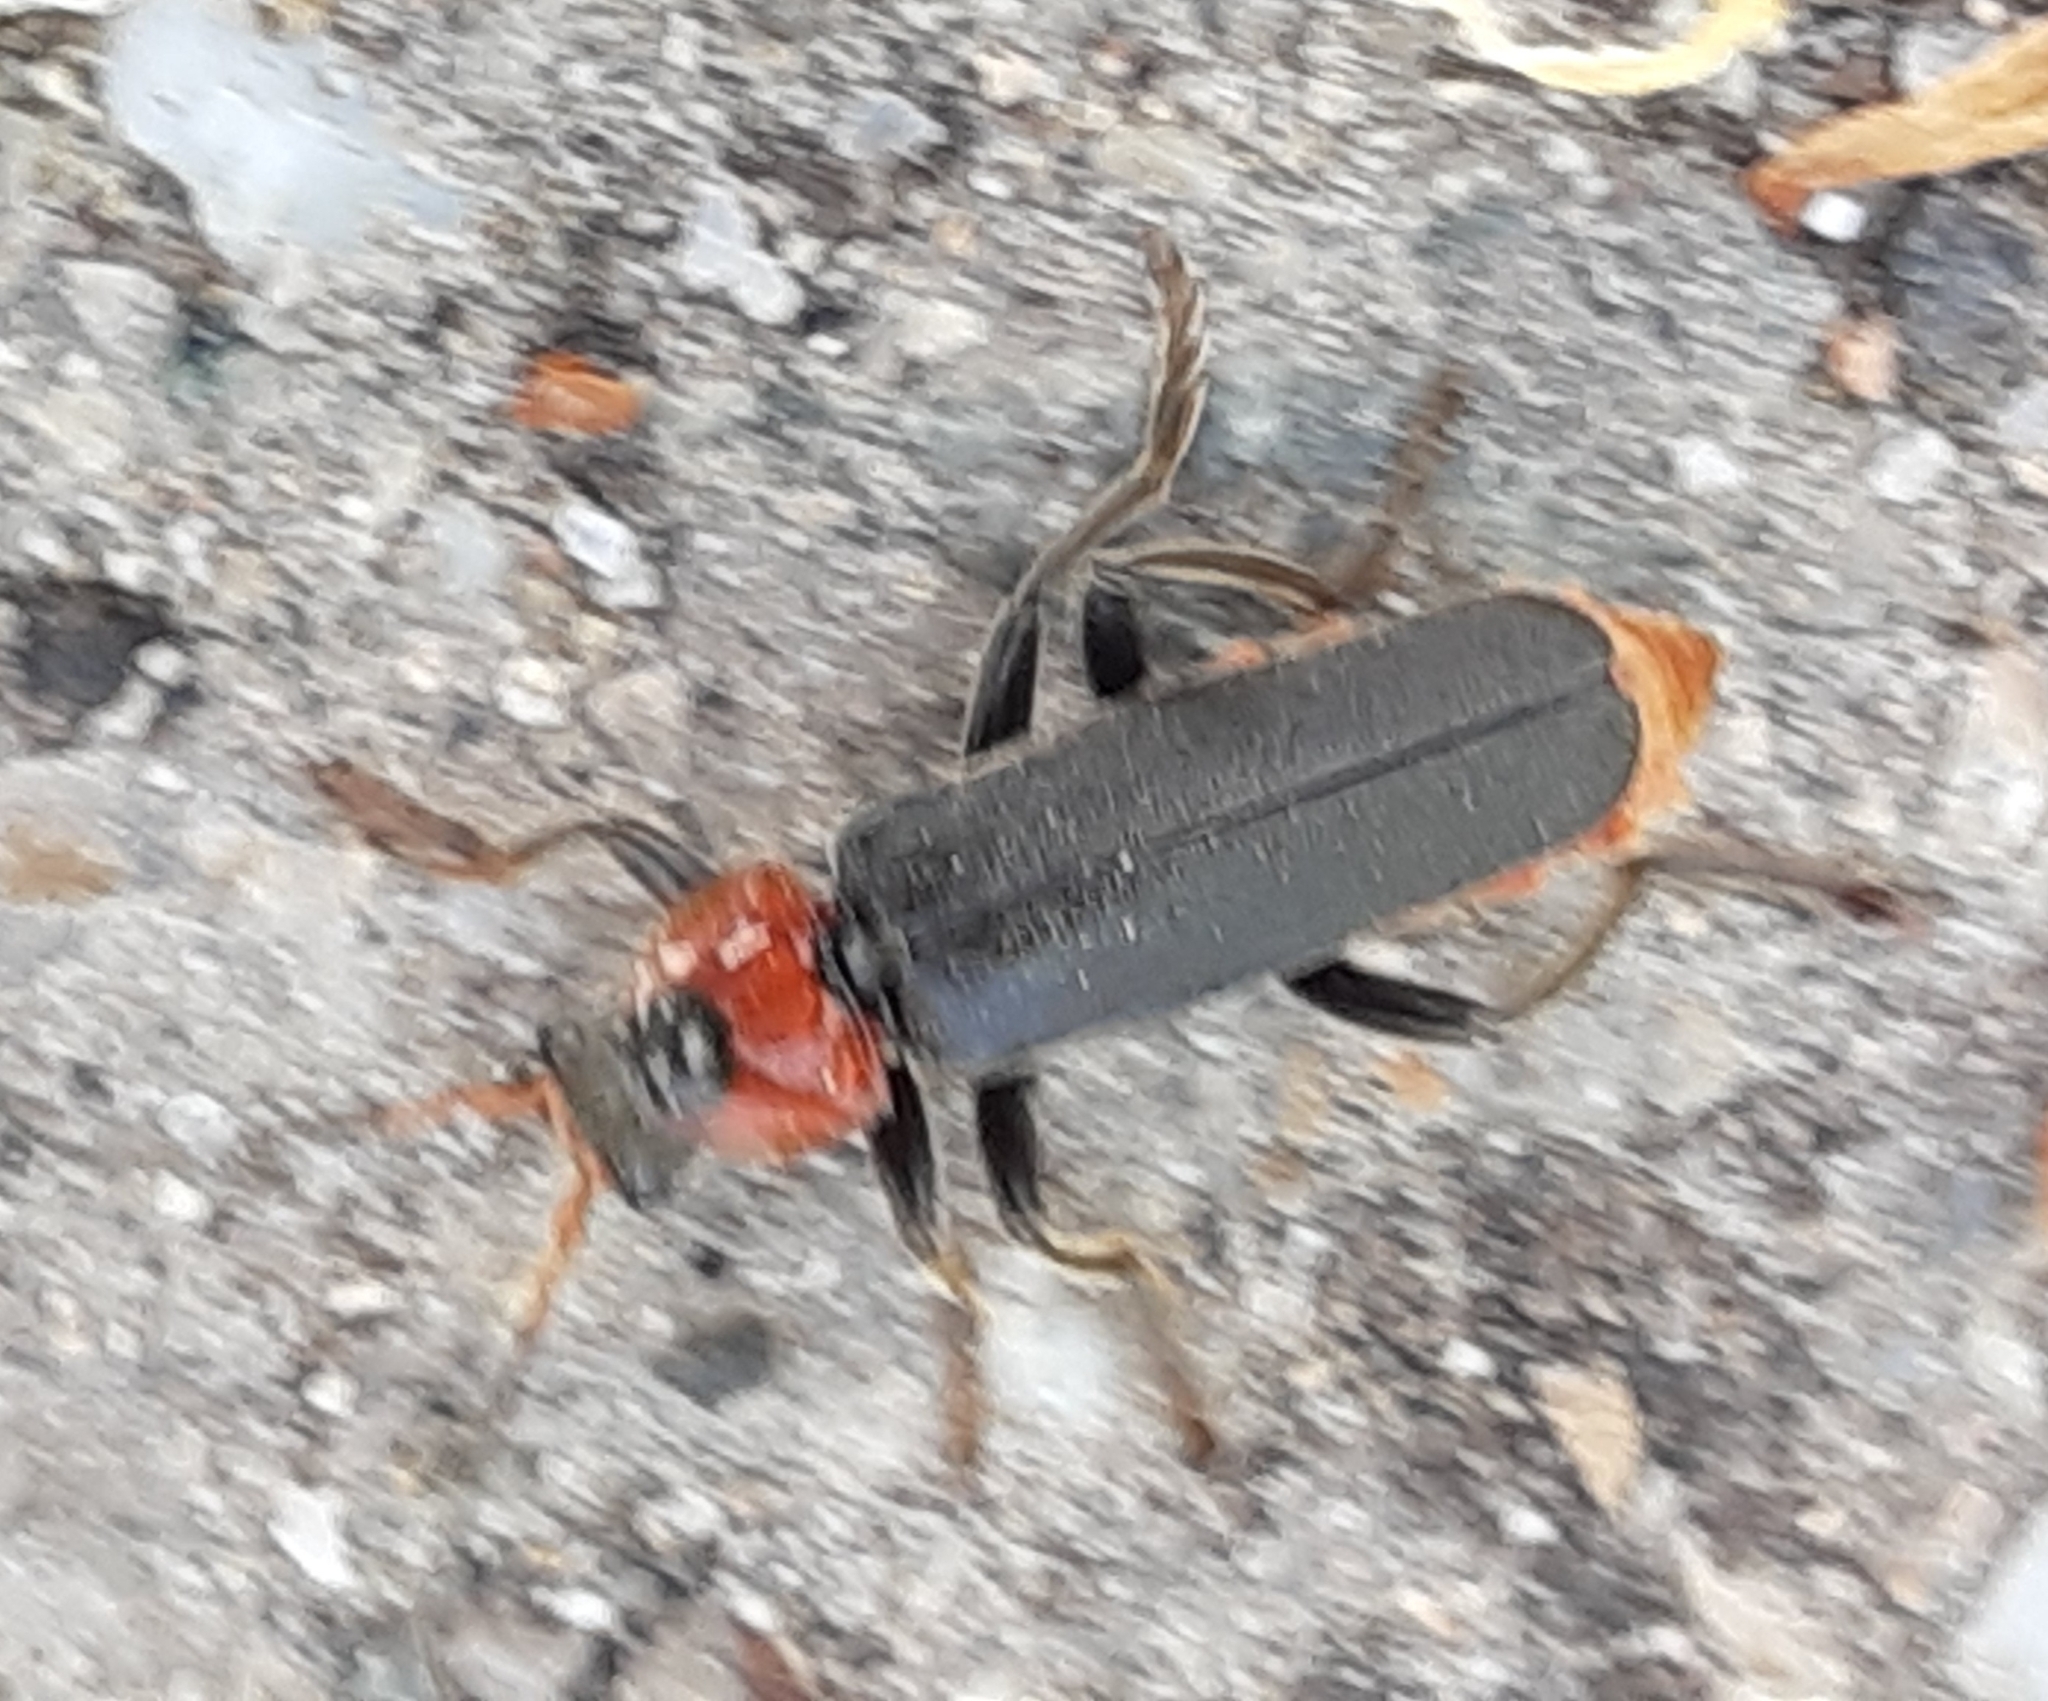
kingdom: Animalia
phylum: Arthropoda
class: Insecta
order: Coleoptera
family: Cantharidae
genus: Cantharis
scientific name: Cantharis fusca
